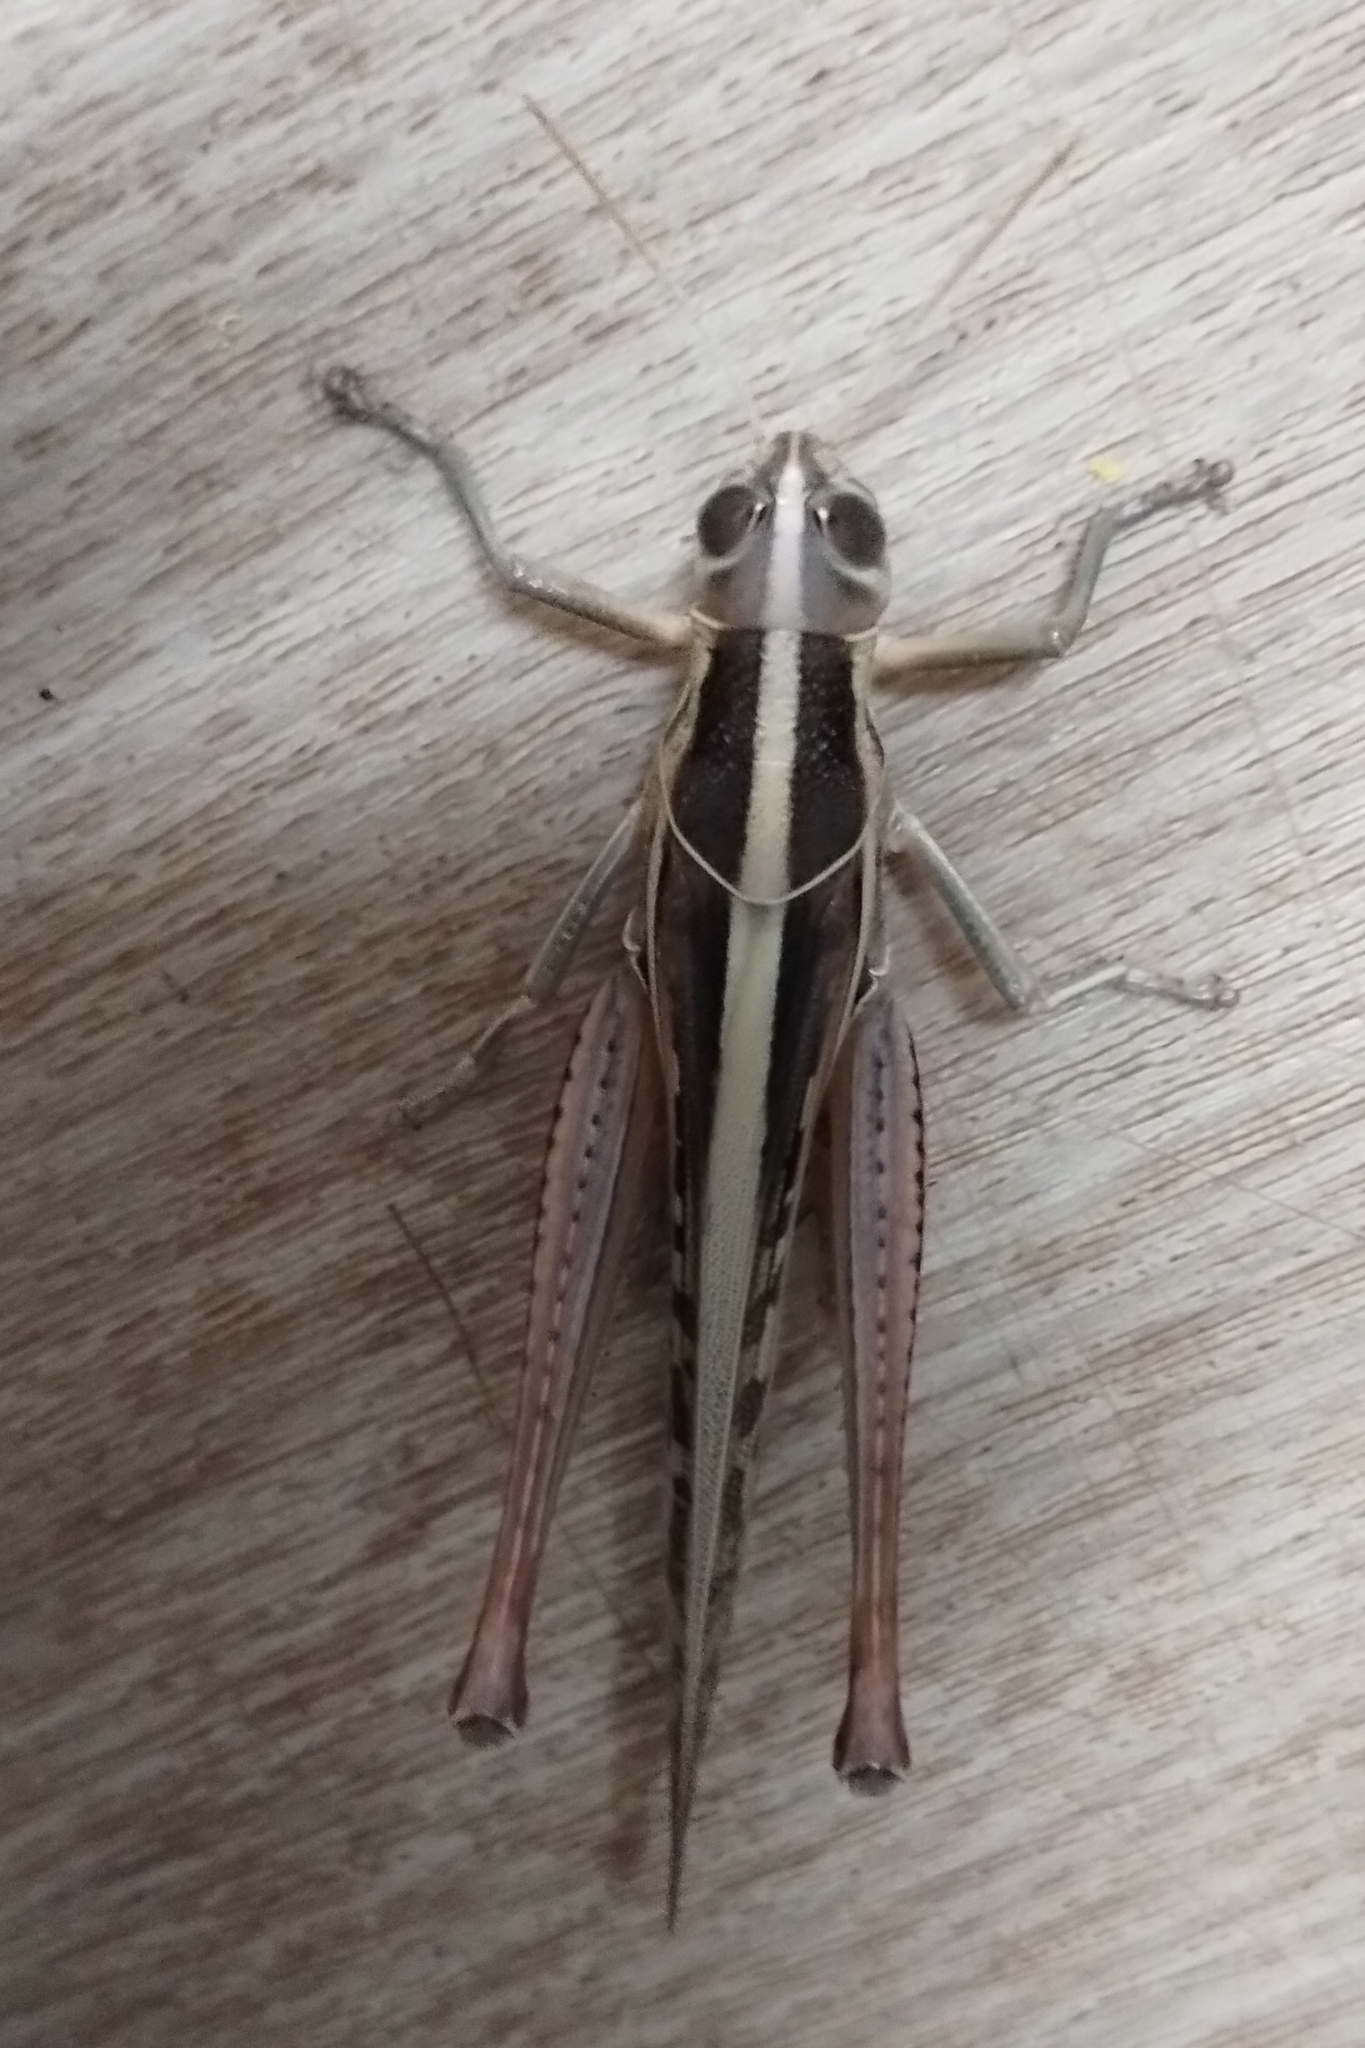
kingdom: Animalia
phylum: Arthropoda
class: Insecta
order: Orthoptera
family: Acrididae
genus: Austracris
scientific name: Austracris guttulosa
